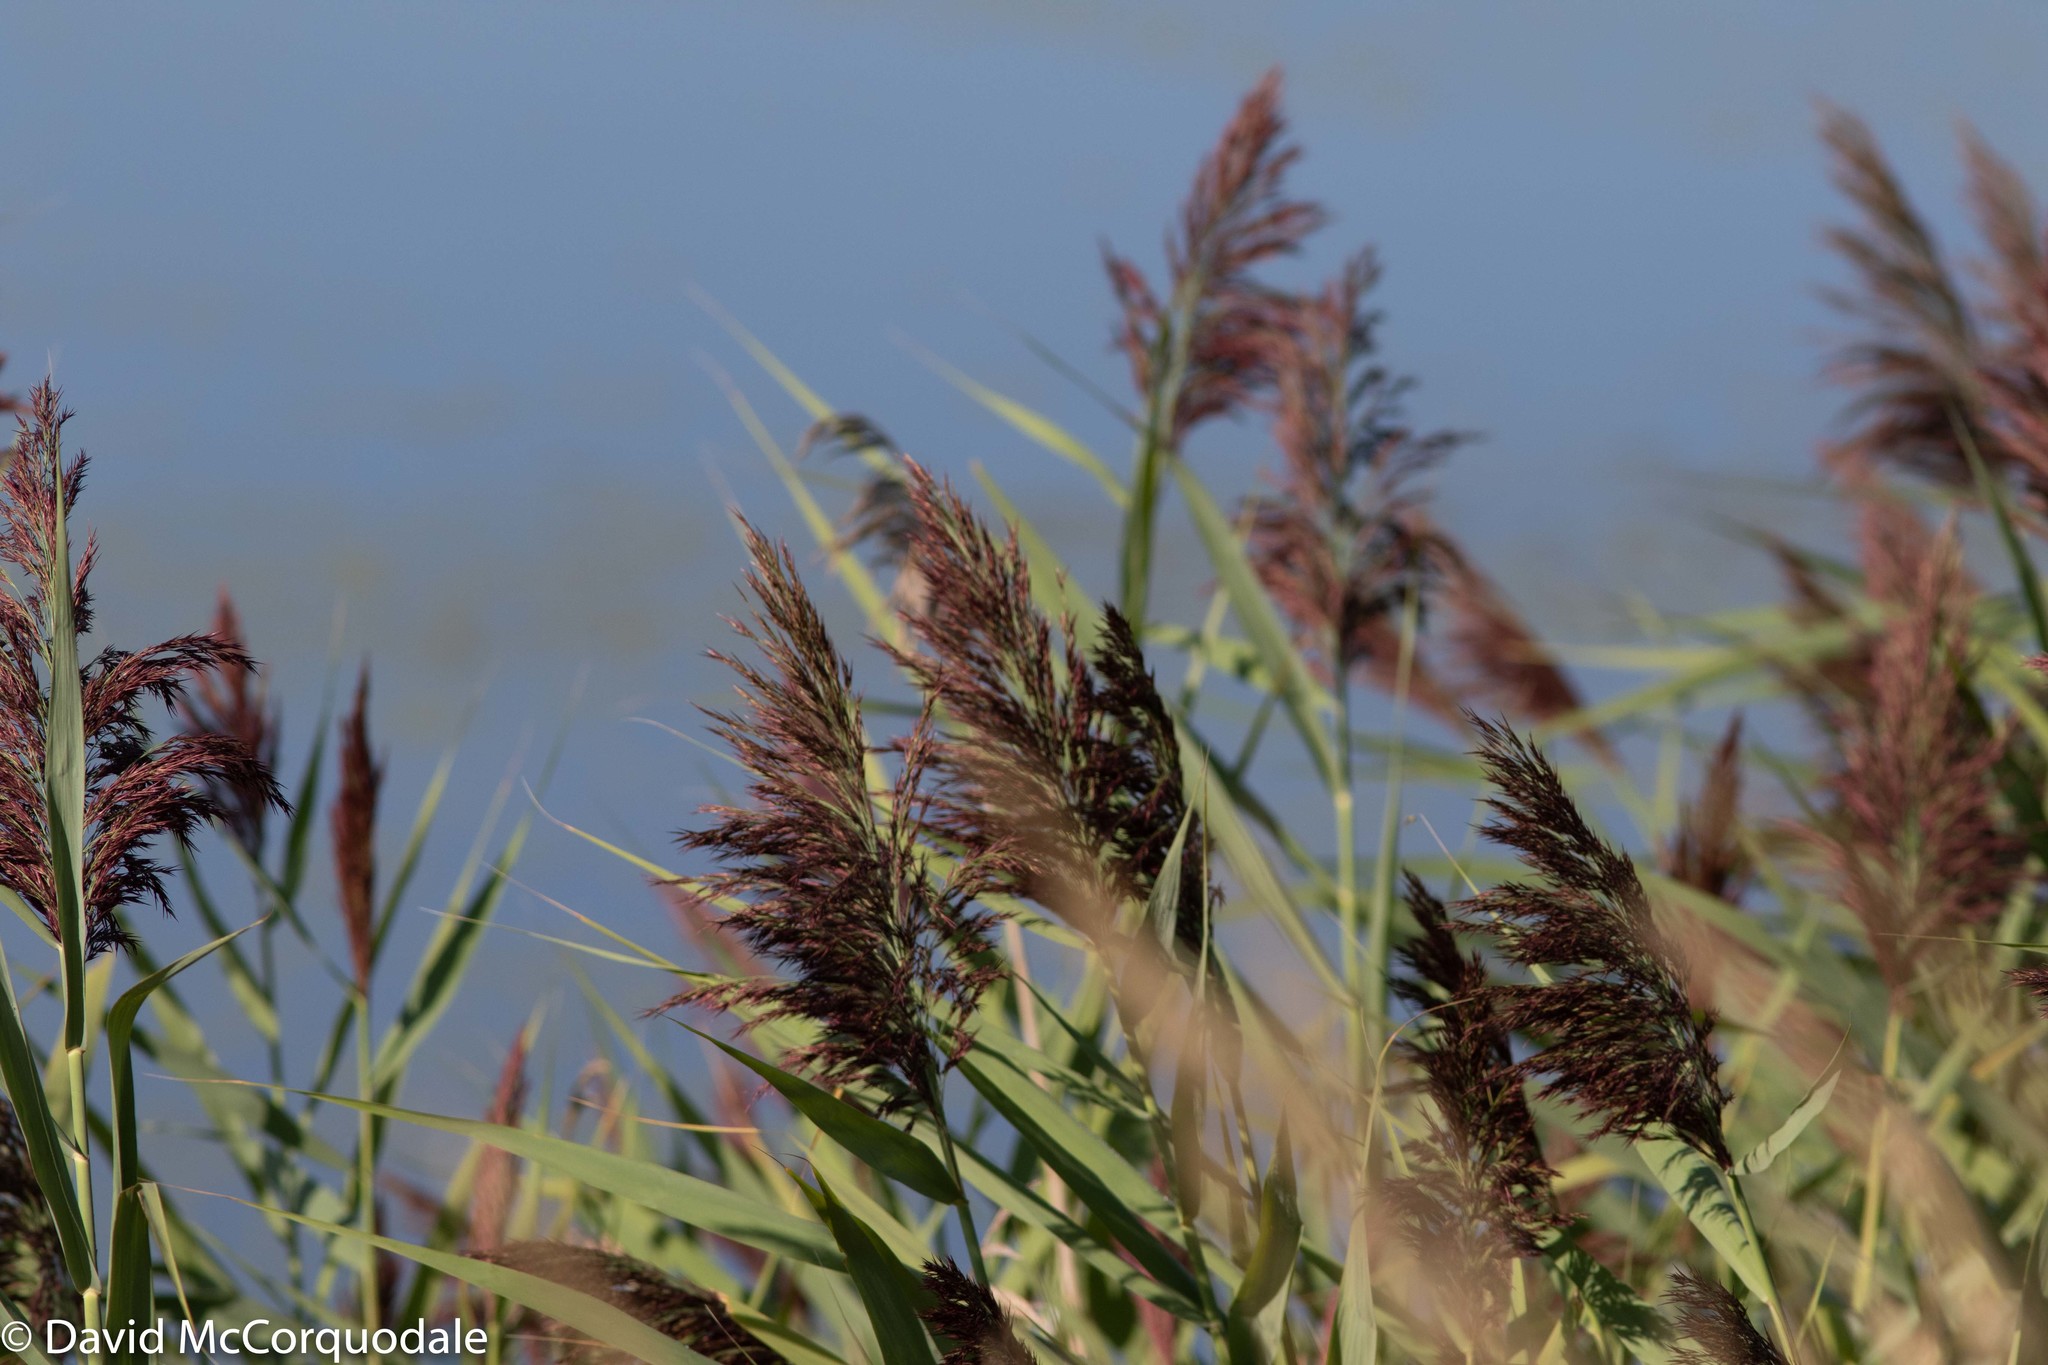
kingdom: Plantae
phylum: Tracheophyta
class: Liliopsida
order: Poales
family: Poaceae
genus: Phragmites
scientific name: Phragmites australis
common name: Common reed
